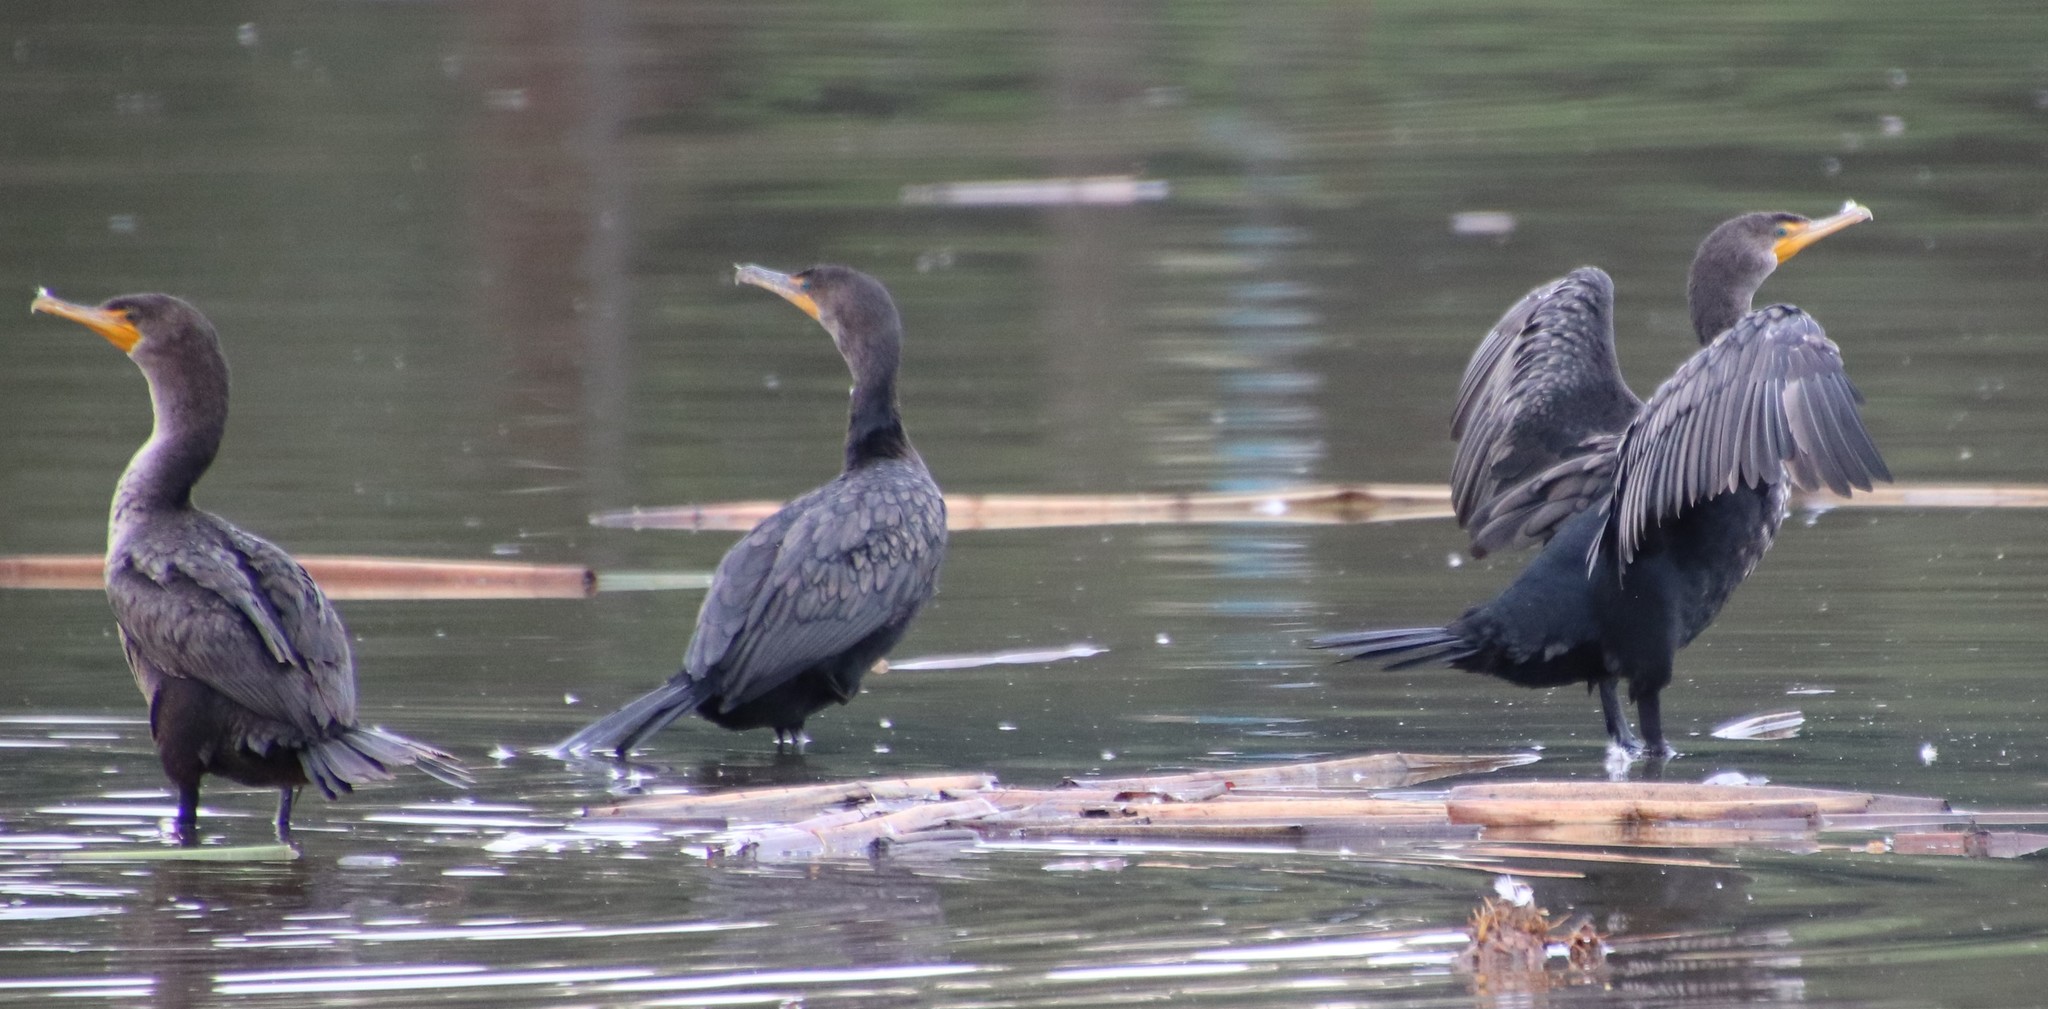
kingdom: Animalia
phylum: Chordata
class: Aves
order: Suliformes
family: Phalacrocoracidae
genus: Phalacrocorax
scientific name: Phalacrocorax auritus
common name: Double-crested cormorant
